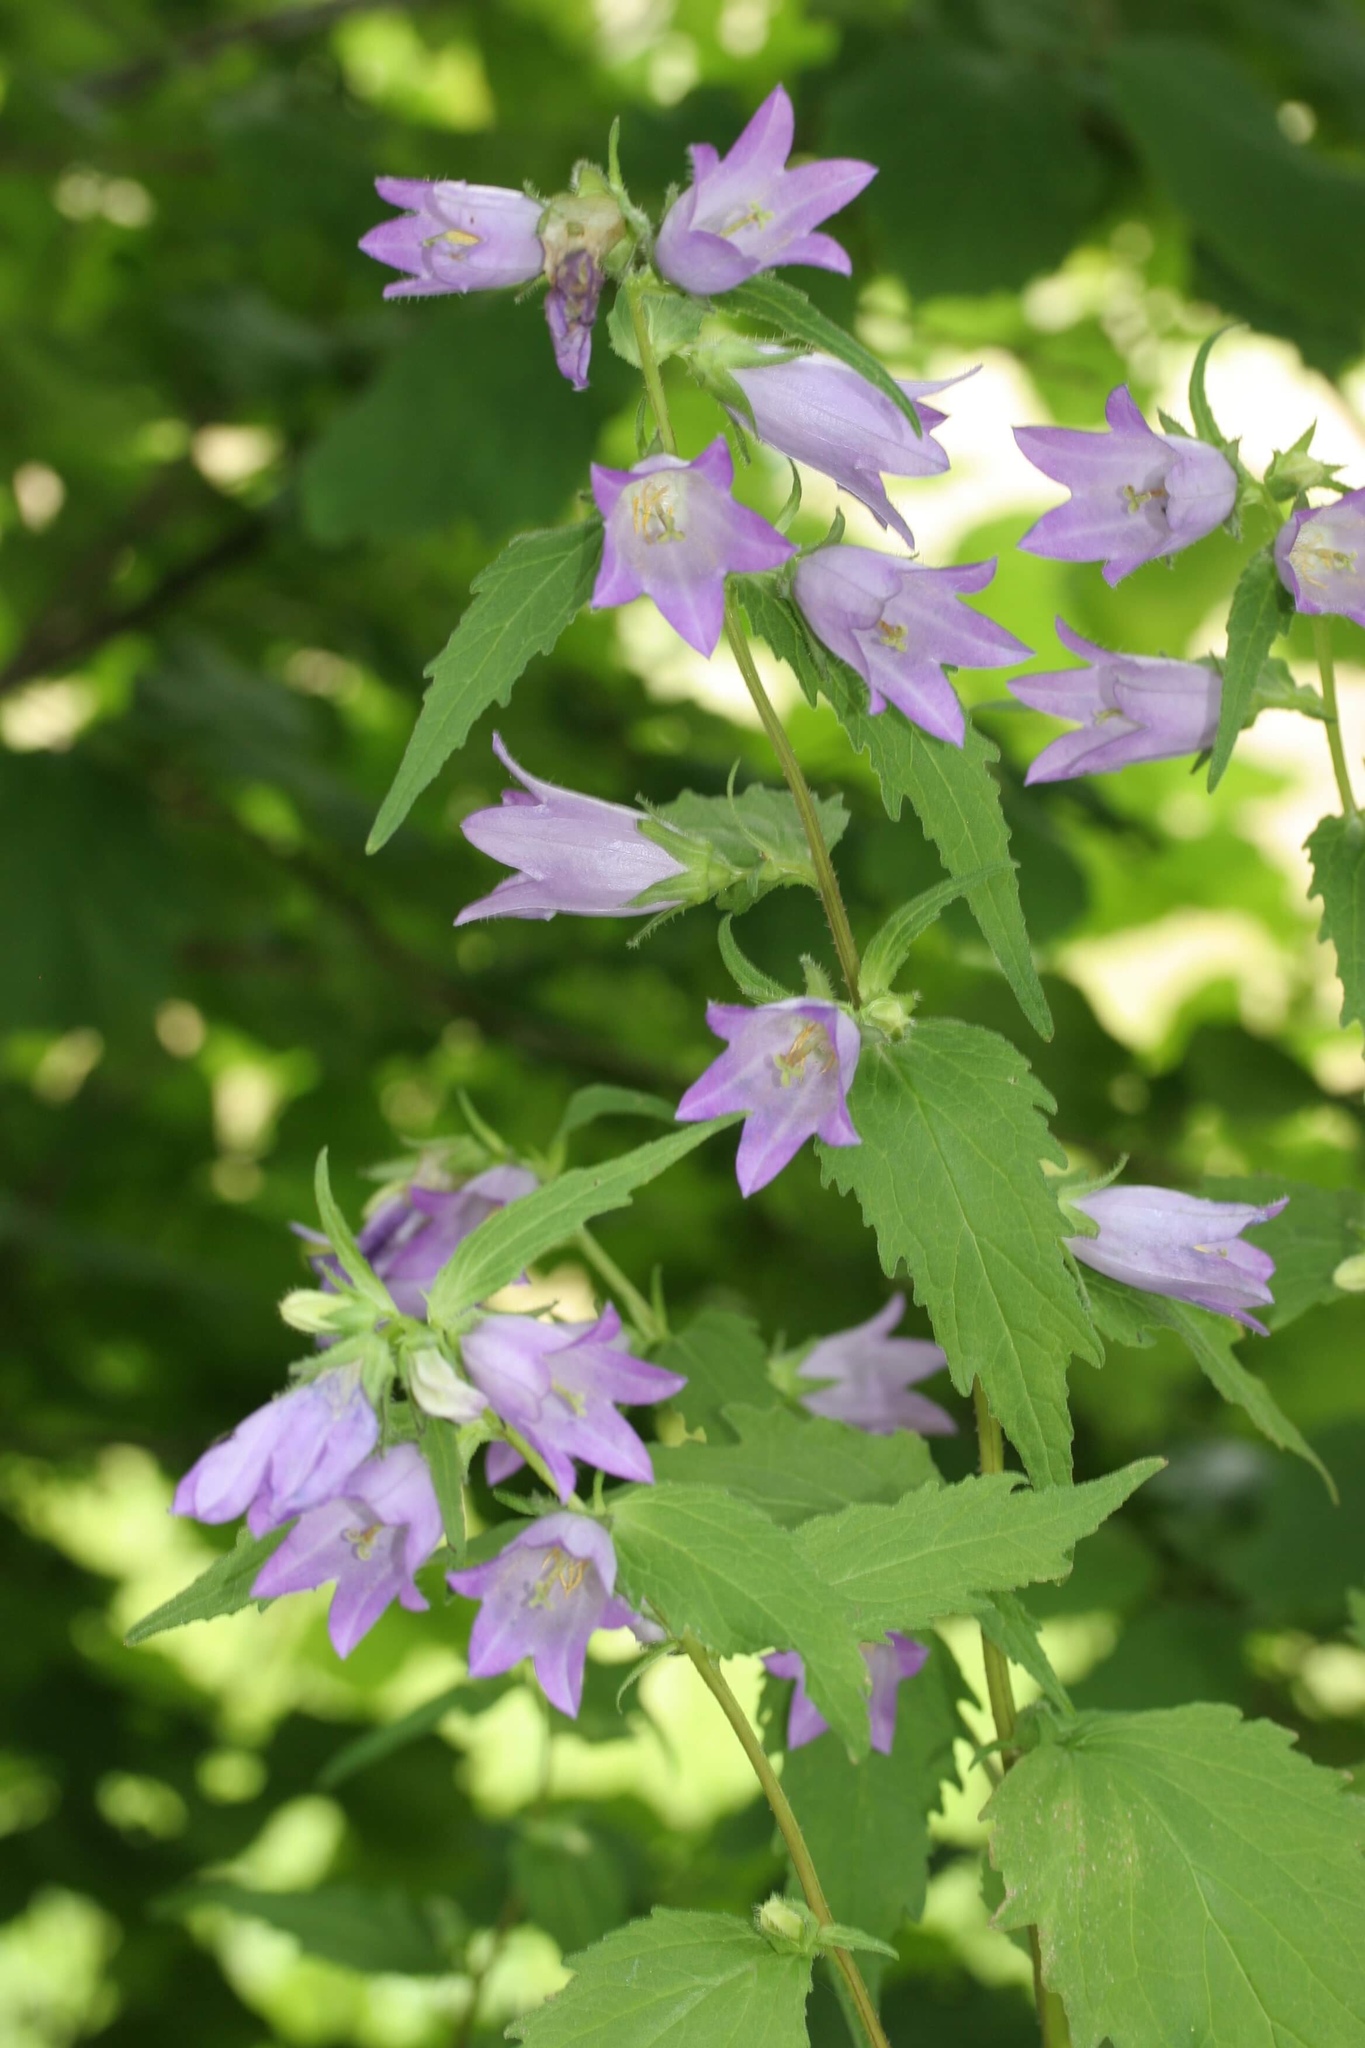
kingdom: Plantae
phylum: Tracheophyta
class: Magnoliopsida
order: Asterales
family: Campanulaceae
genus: Campanula
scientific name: Campanula trachelium
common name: Nettle-leaved bellflower
